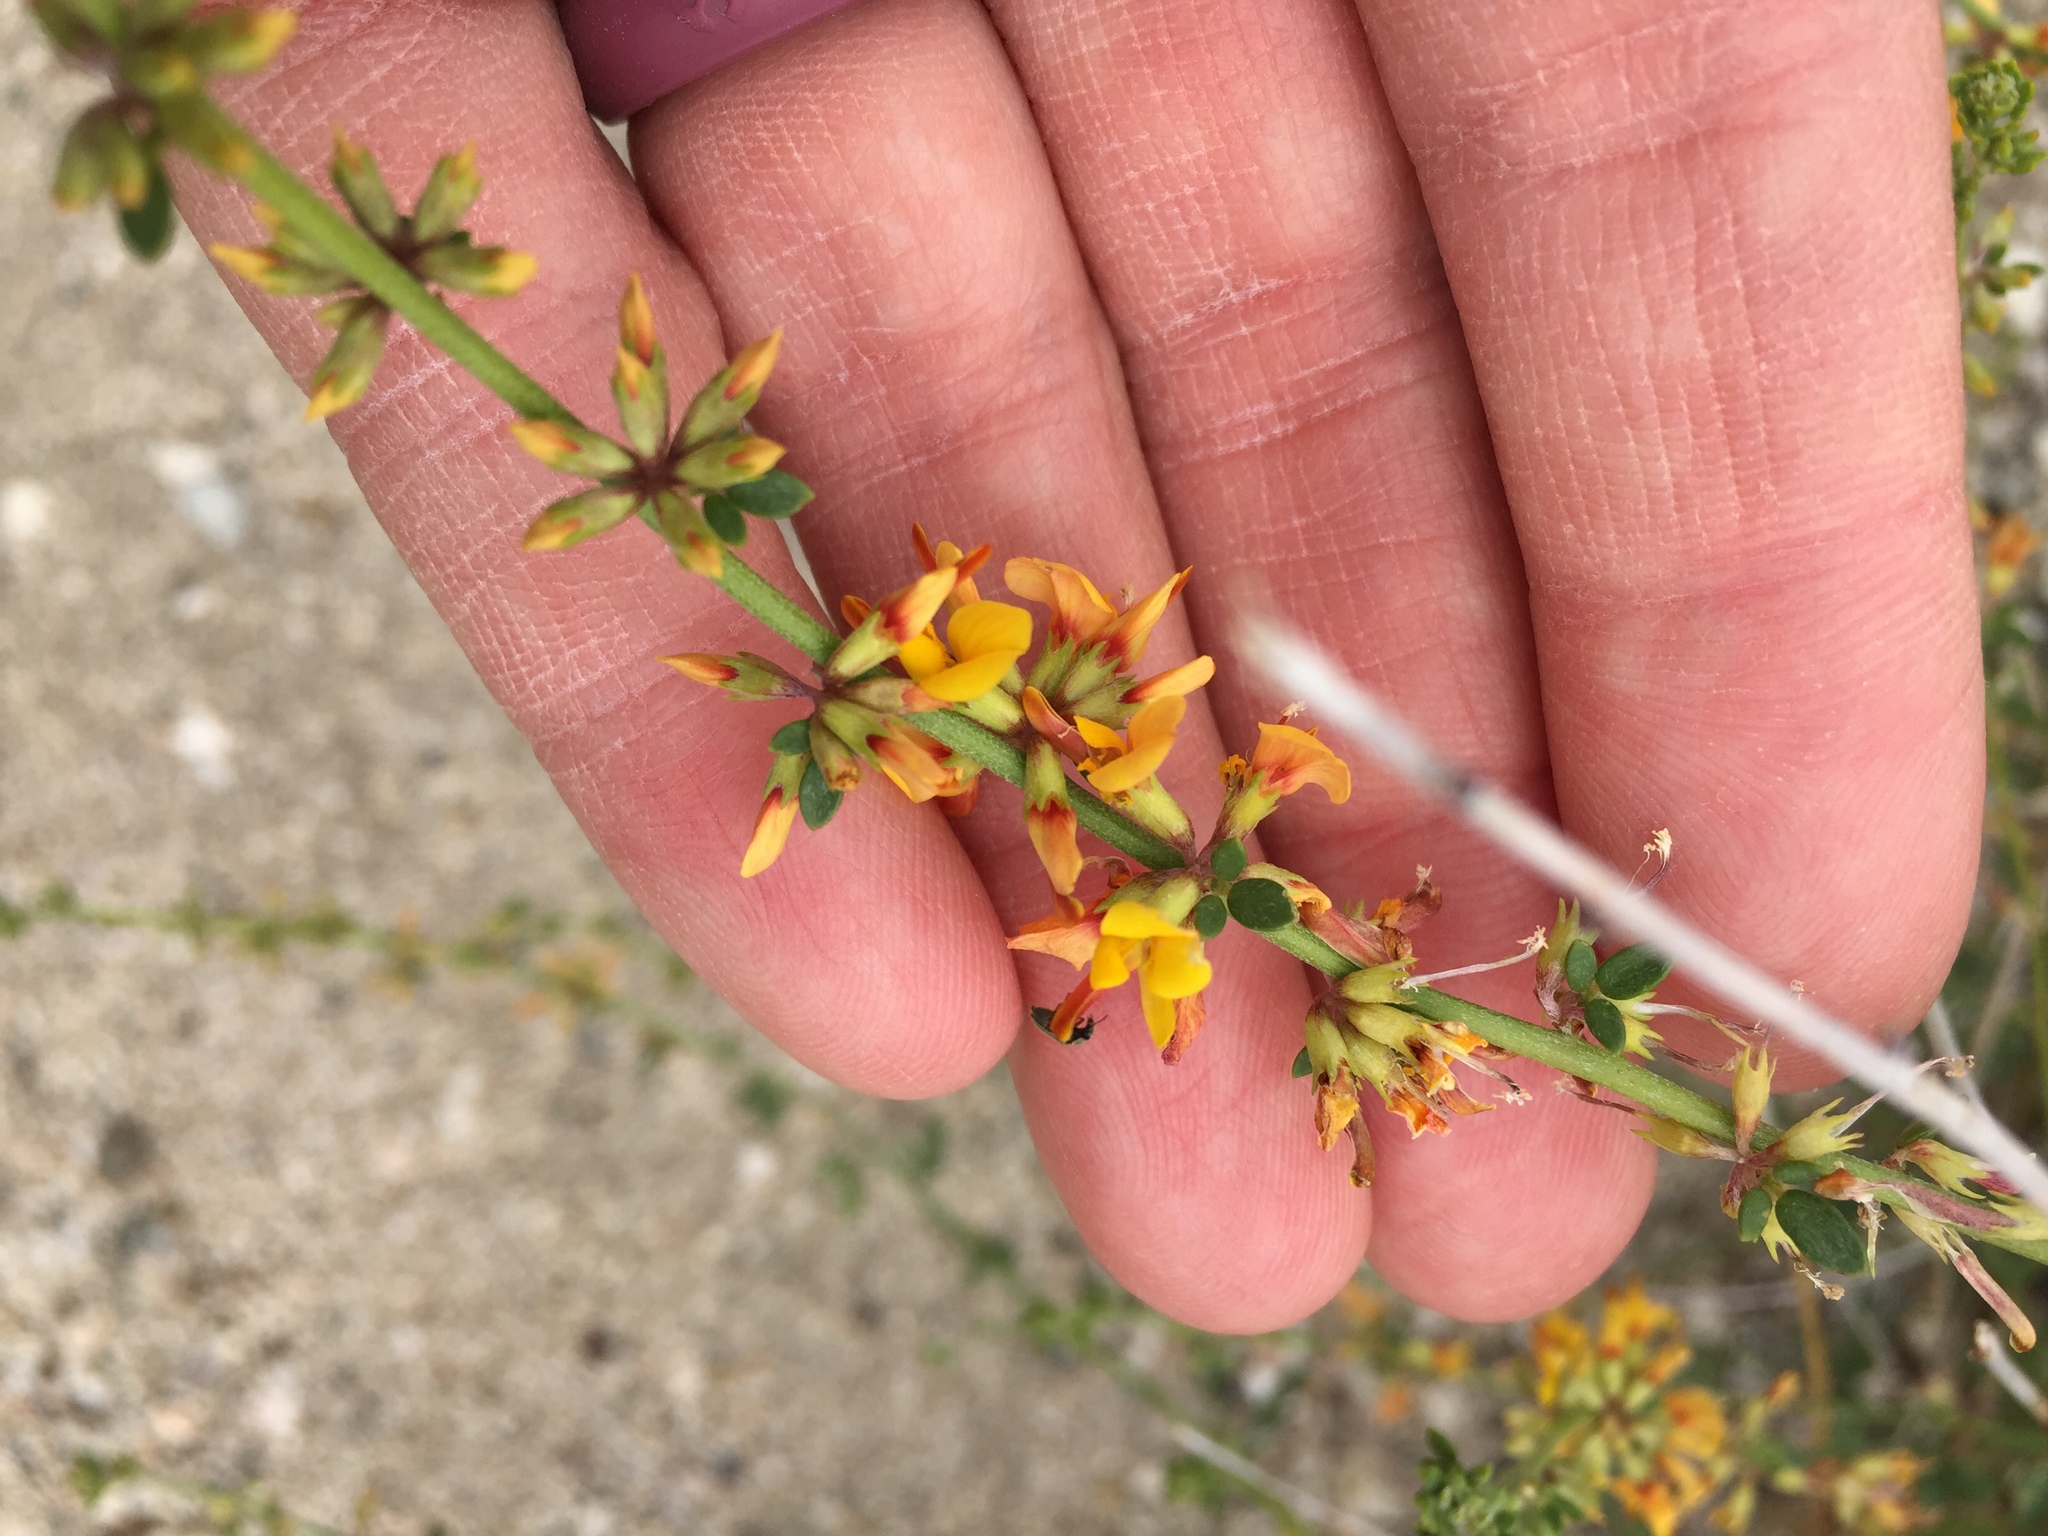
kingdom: Plantae
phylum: Tracheophyta
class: Magnoliopsida
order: Fabales
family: Fabaceae
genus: Acmispon
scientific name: Acmispon glaber
